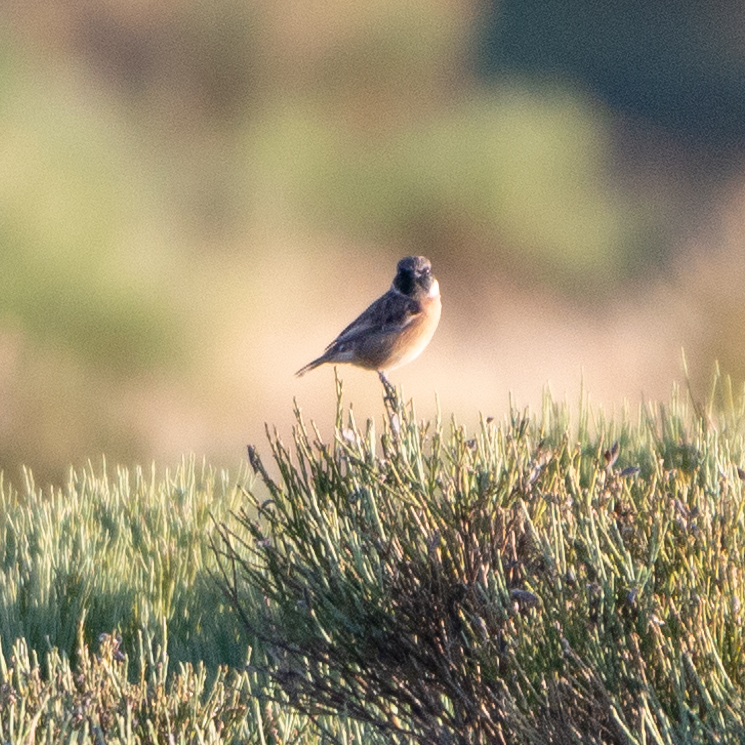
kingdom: Animalia
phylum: Chordata
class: Aves
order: Passeriformes
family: Muscicapidae
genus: Saxicola
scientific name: Saxicola rubicola
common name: European stonechat
